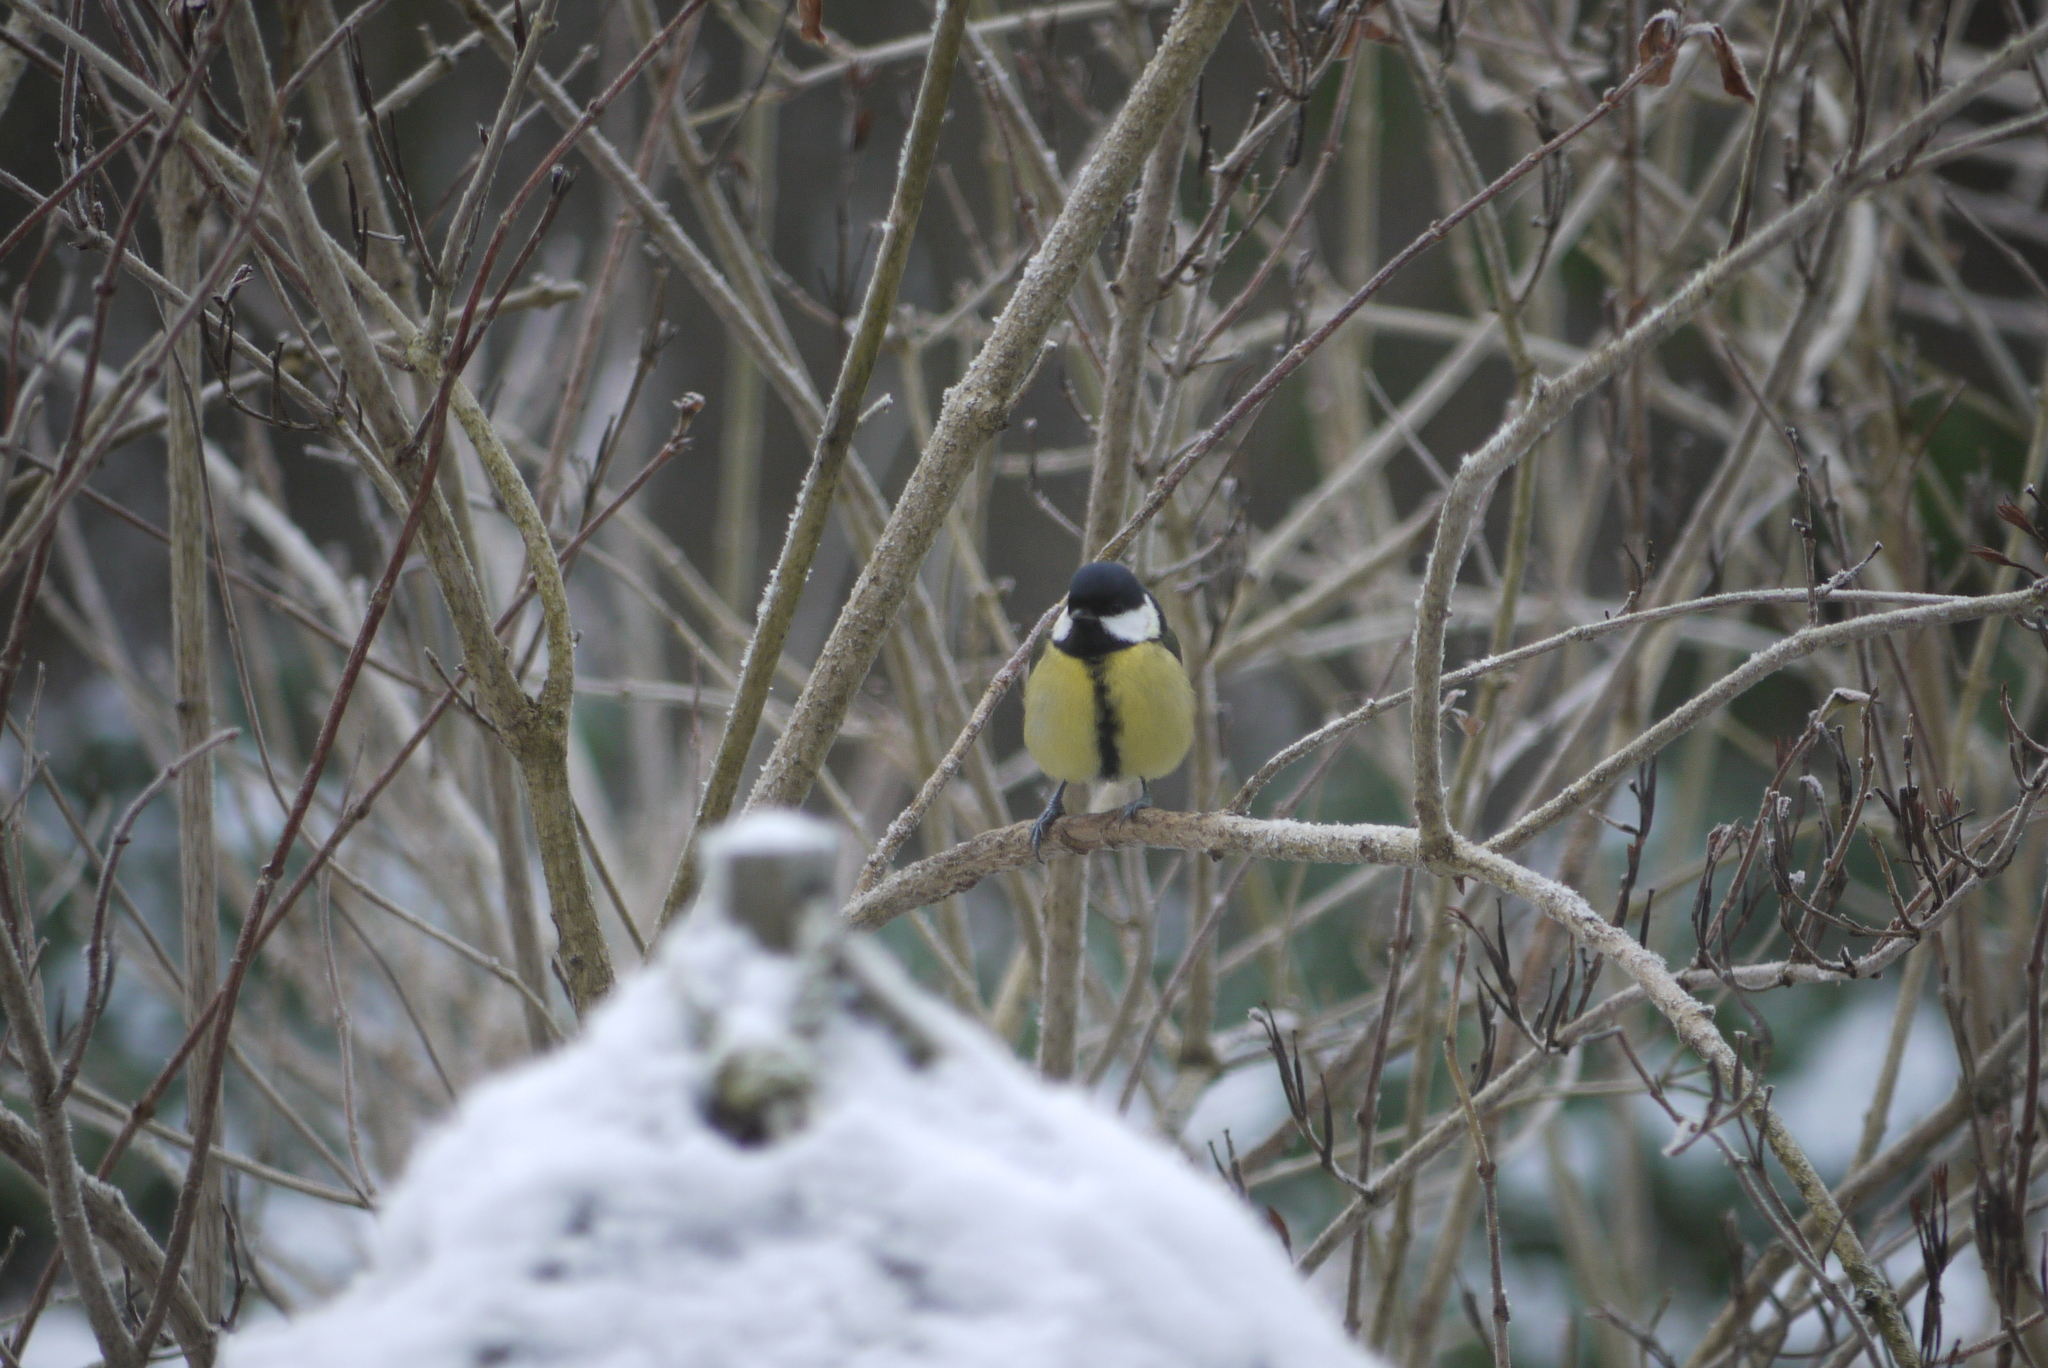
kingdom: Animalia
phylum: Chordata
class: Aves
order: Passeriformes
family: Paridae
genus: Parus
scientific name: Parus major
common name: Great tit
